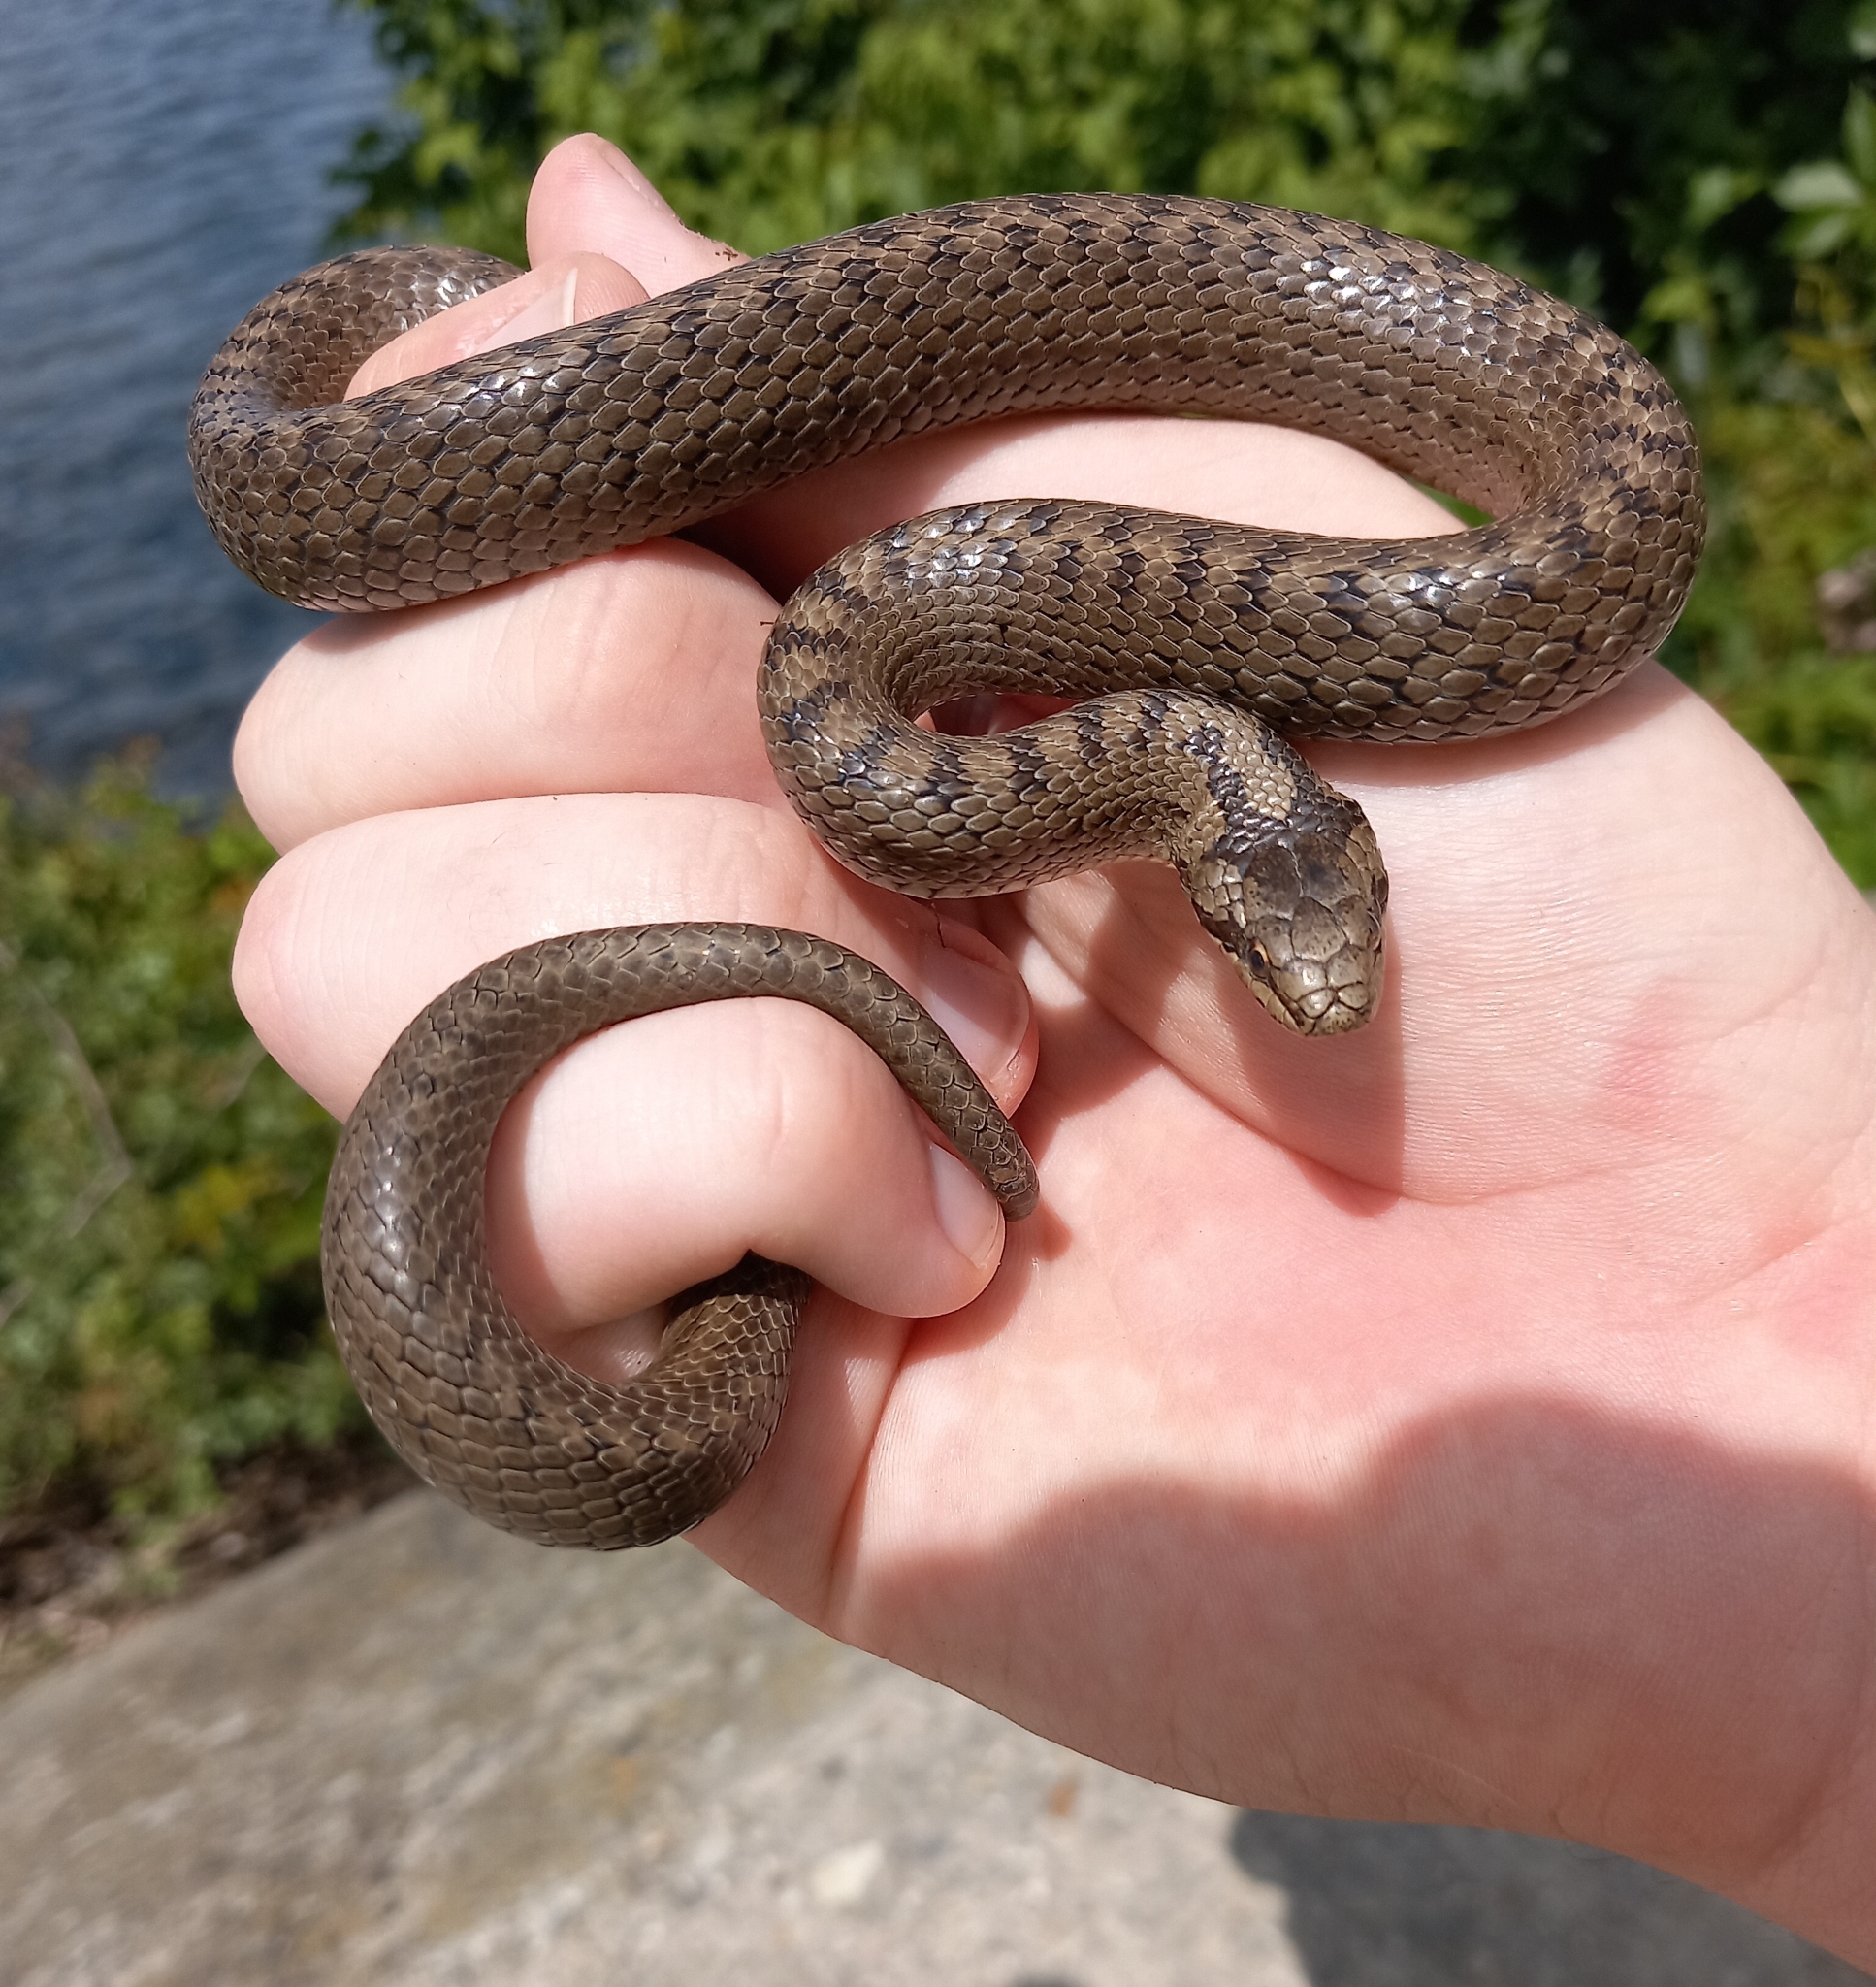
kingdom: Animalia
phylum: Chordata
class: Squamata
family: Colubridae
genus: Coronella
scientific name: Coronella austriaca
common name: Smooth snake
